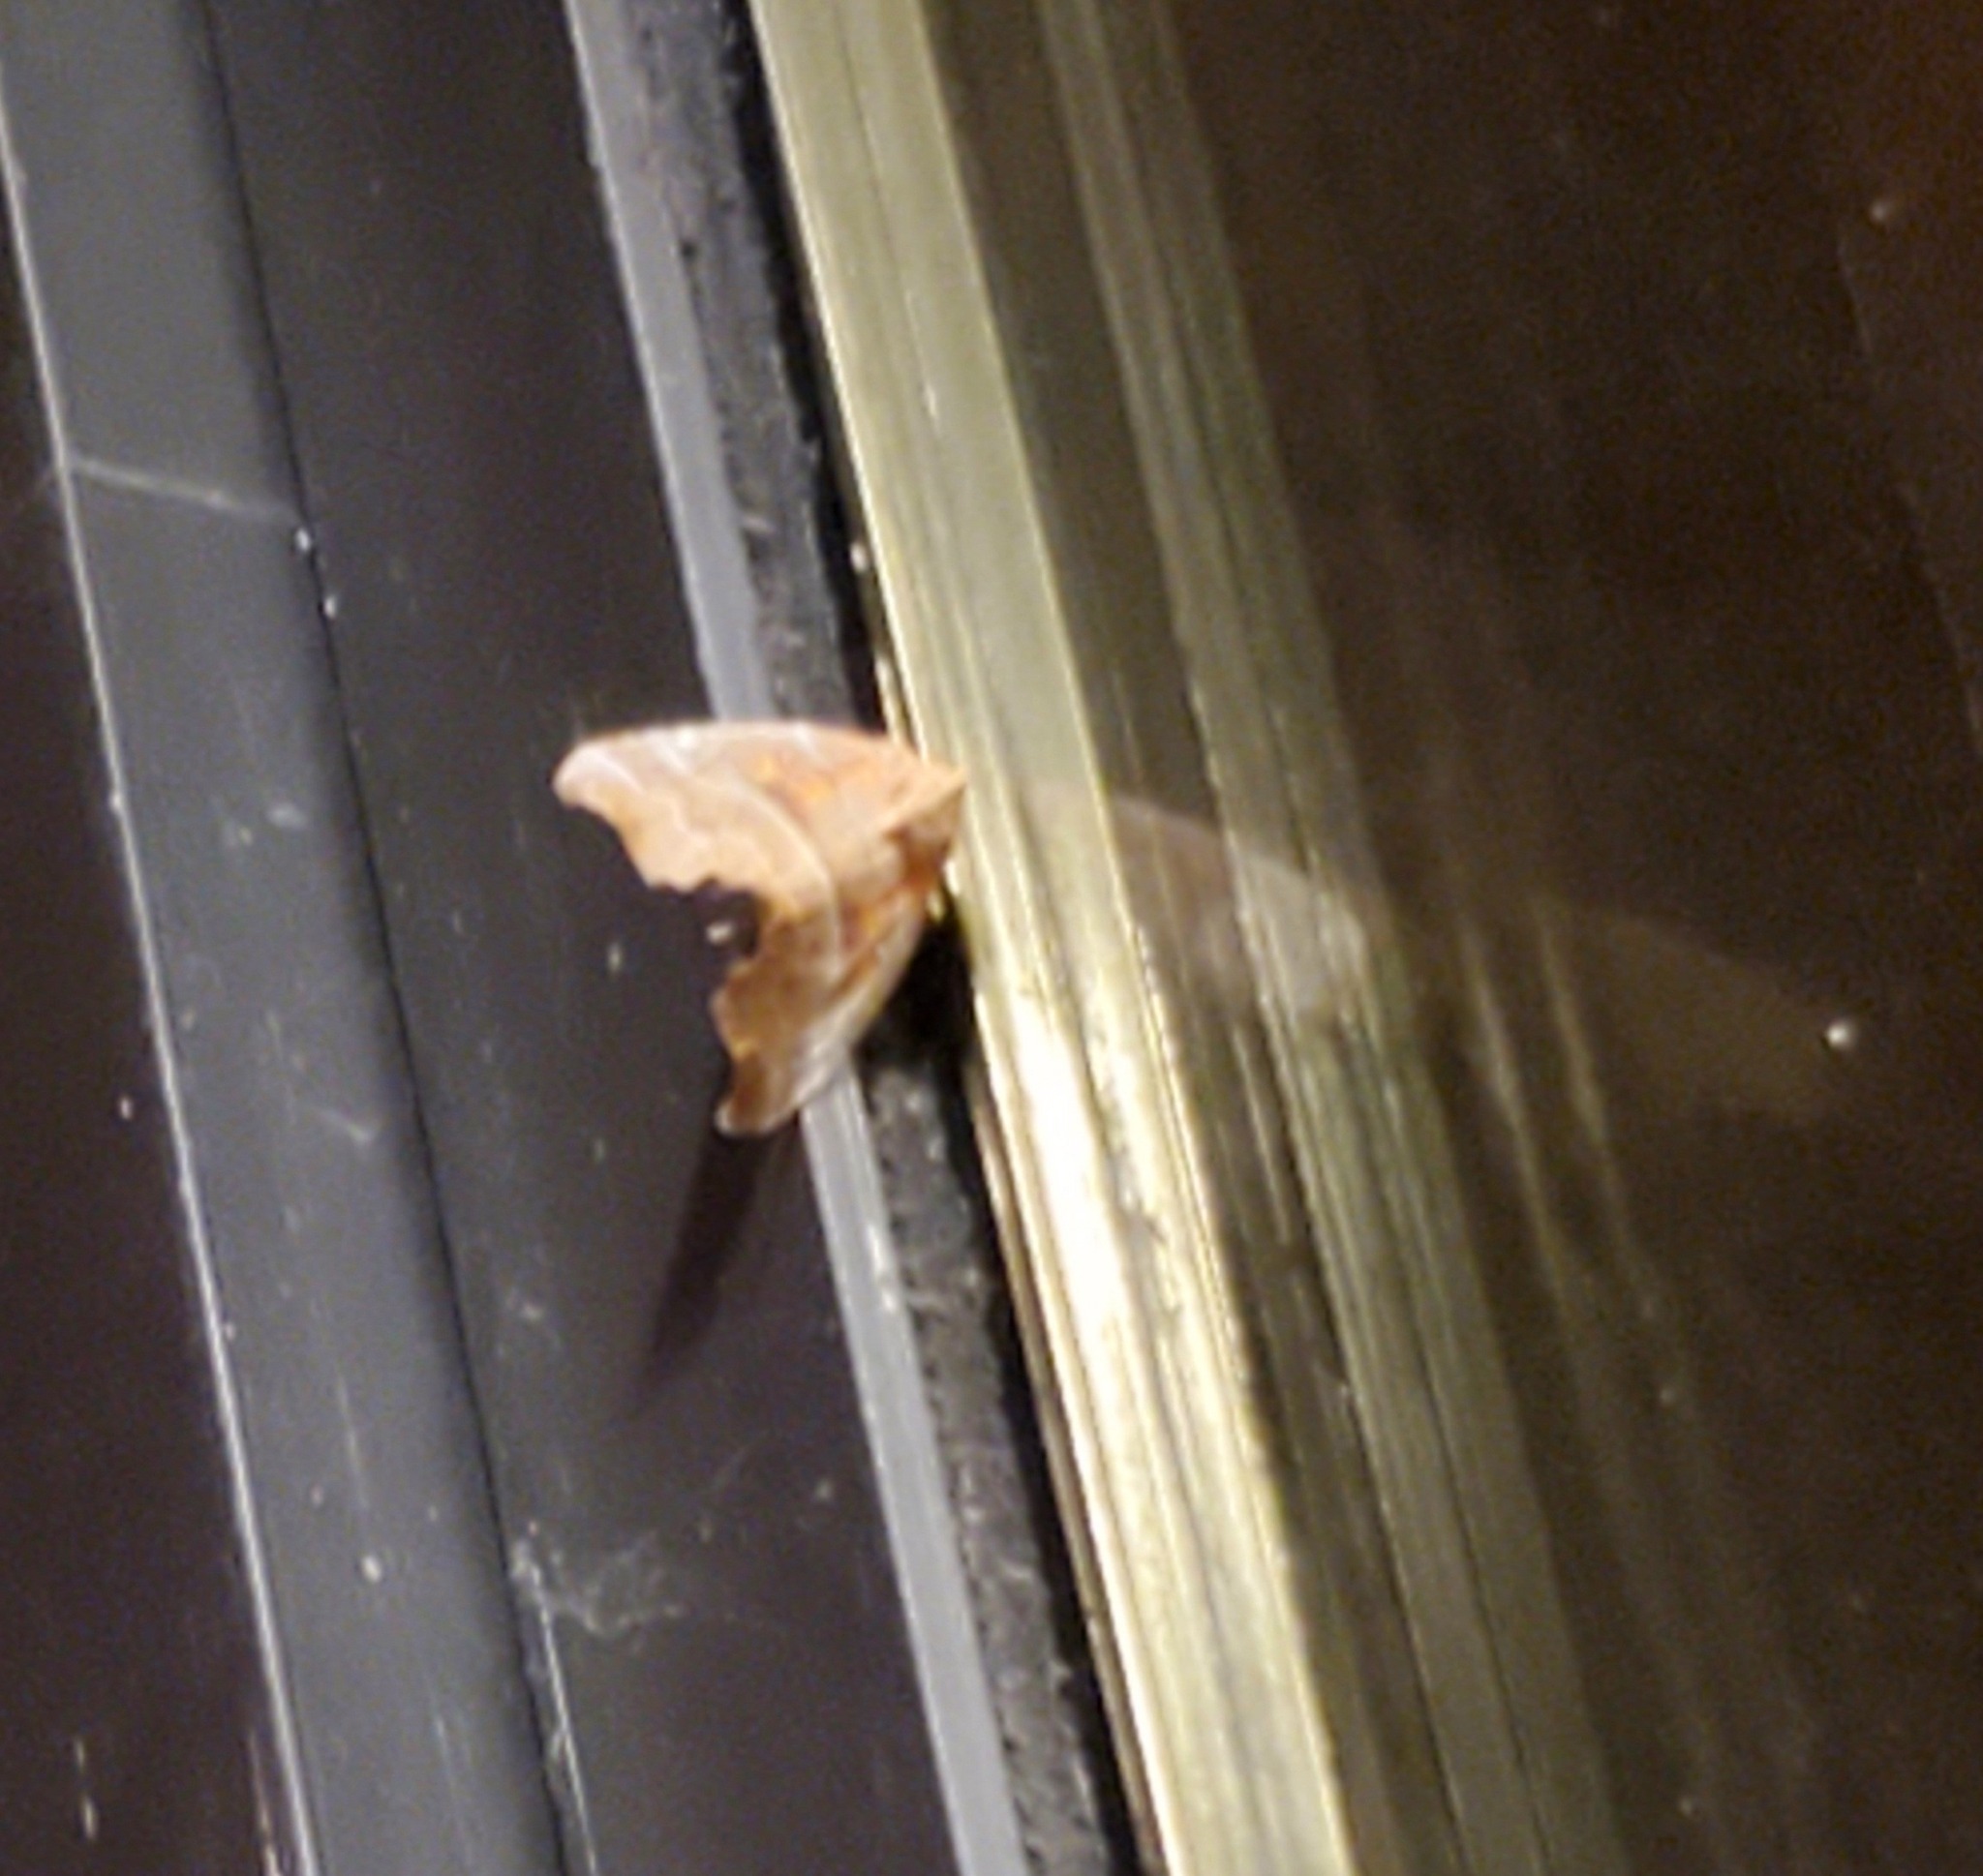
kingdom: Animalia
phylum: Arthropoda
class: Insecta
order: Lepidoptera
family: Erebidae
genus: Scoliopteryx
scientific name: Scoliopteryx libatrix
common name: Herald
